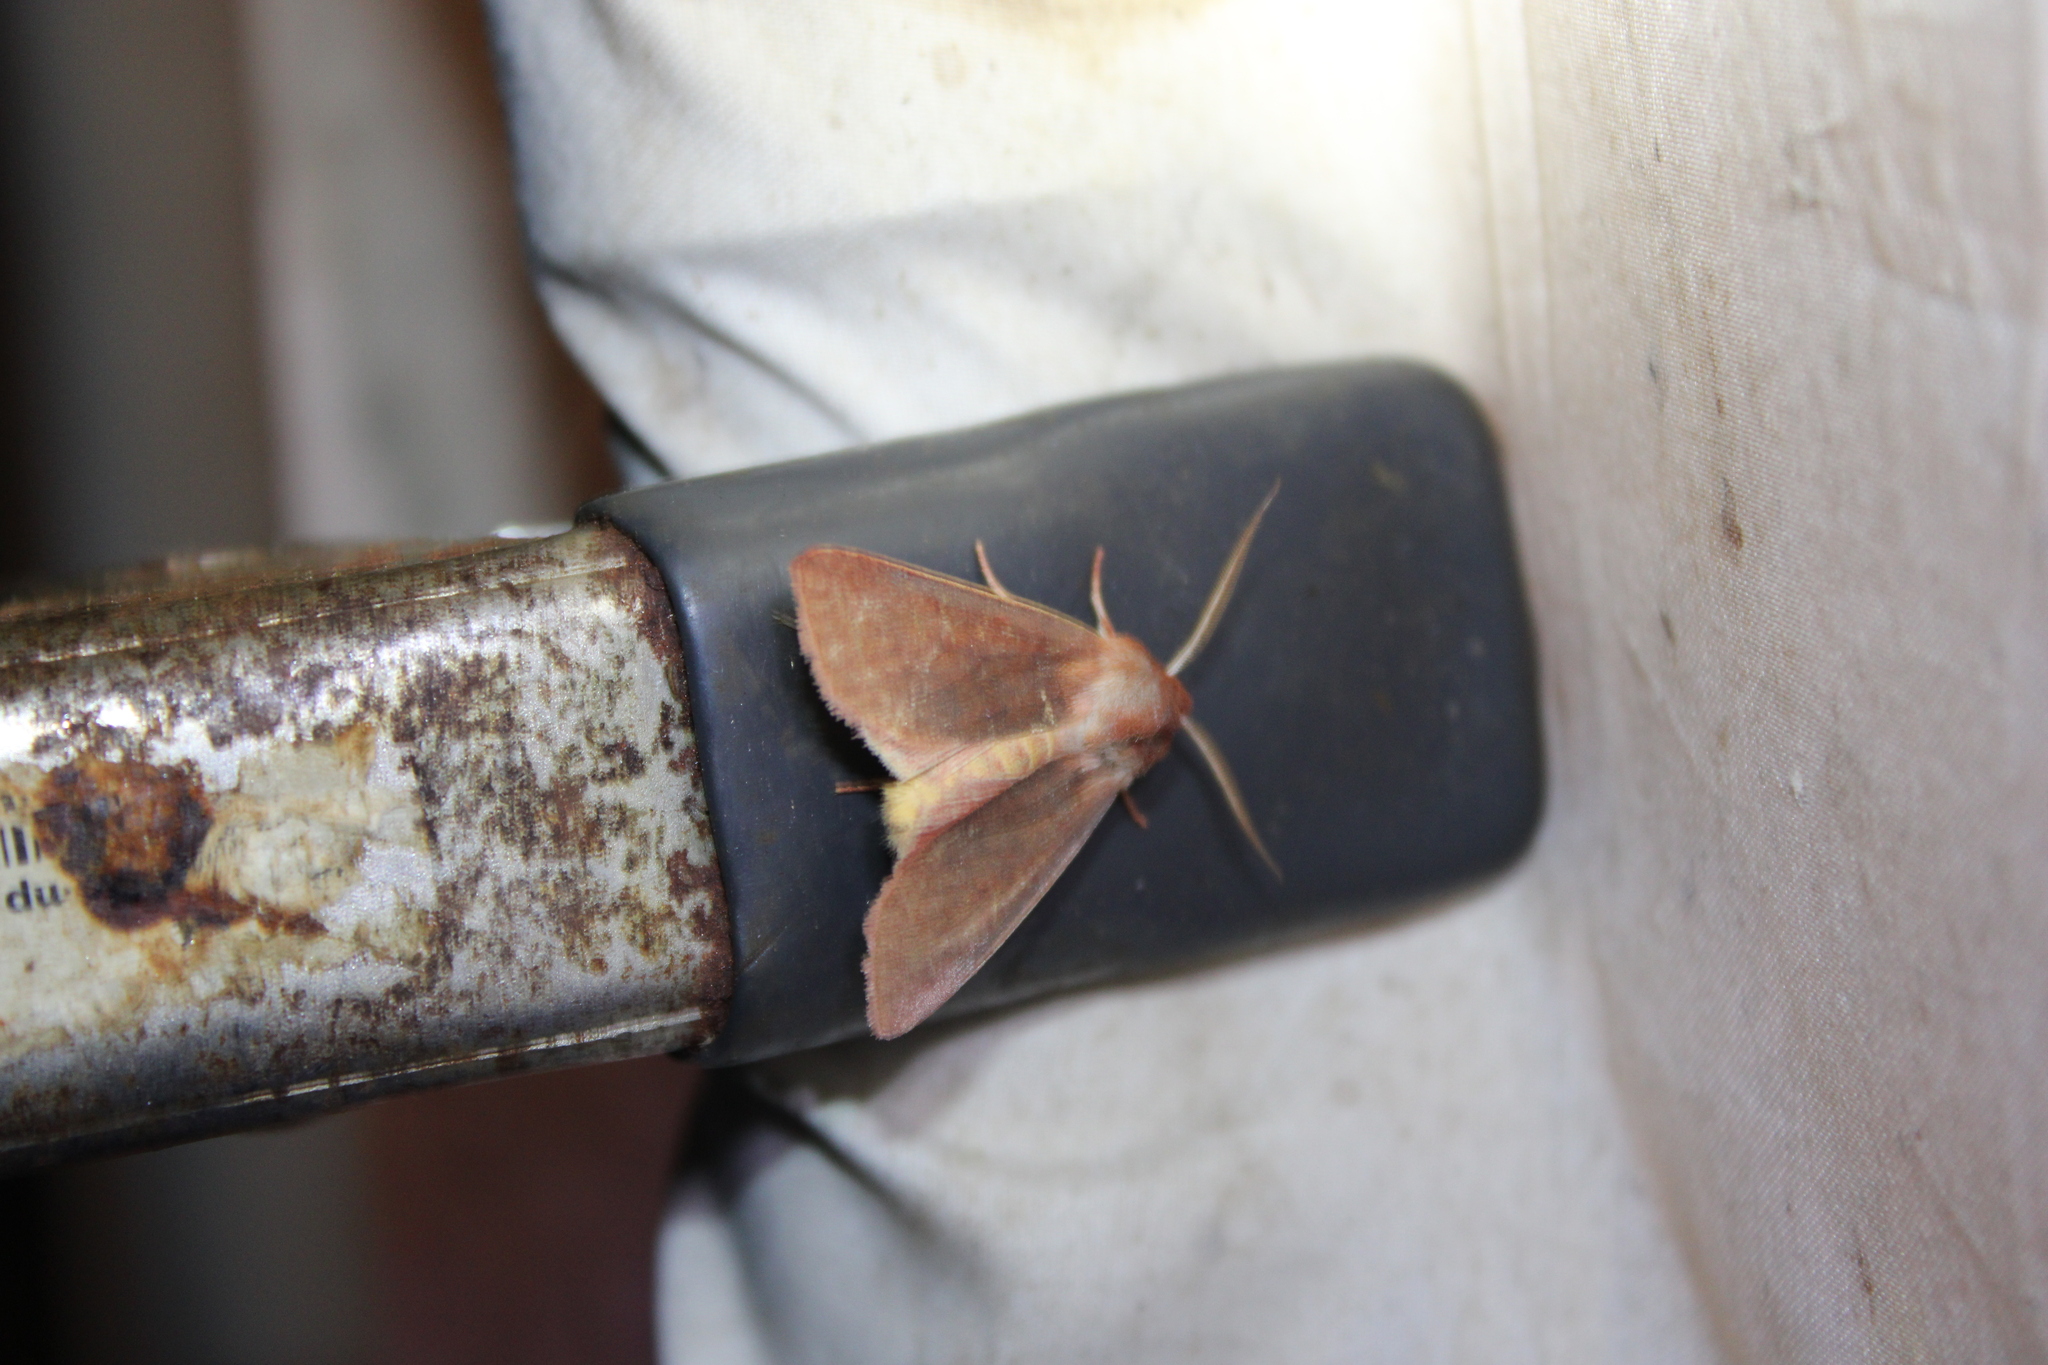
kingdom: Animalia
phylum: Arthropoda
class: Insecta
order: Lepidoptera
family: Noctuidae
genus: Psectraglaea
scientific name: Psectraglaea carnosa
